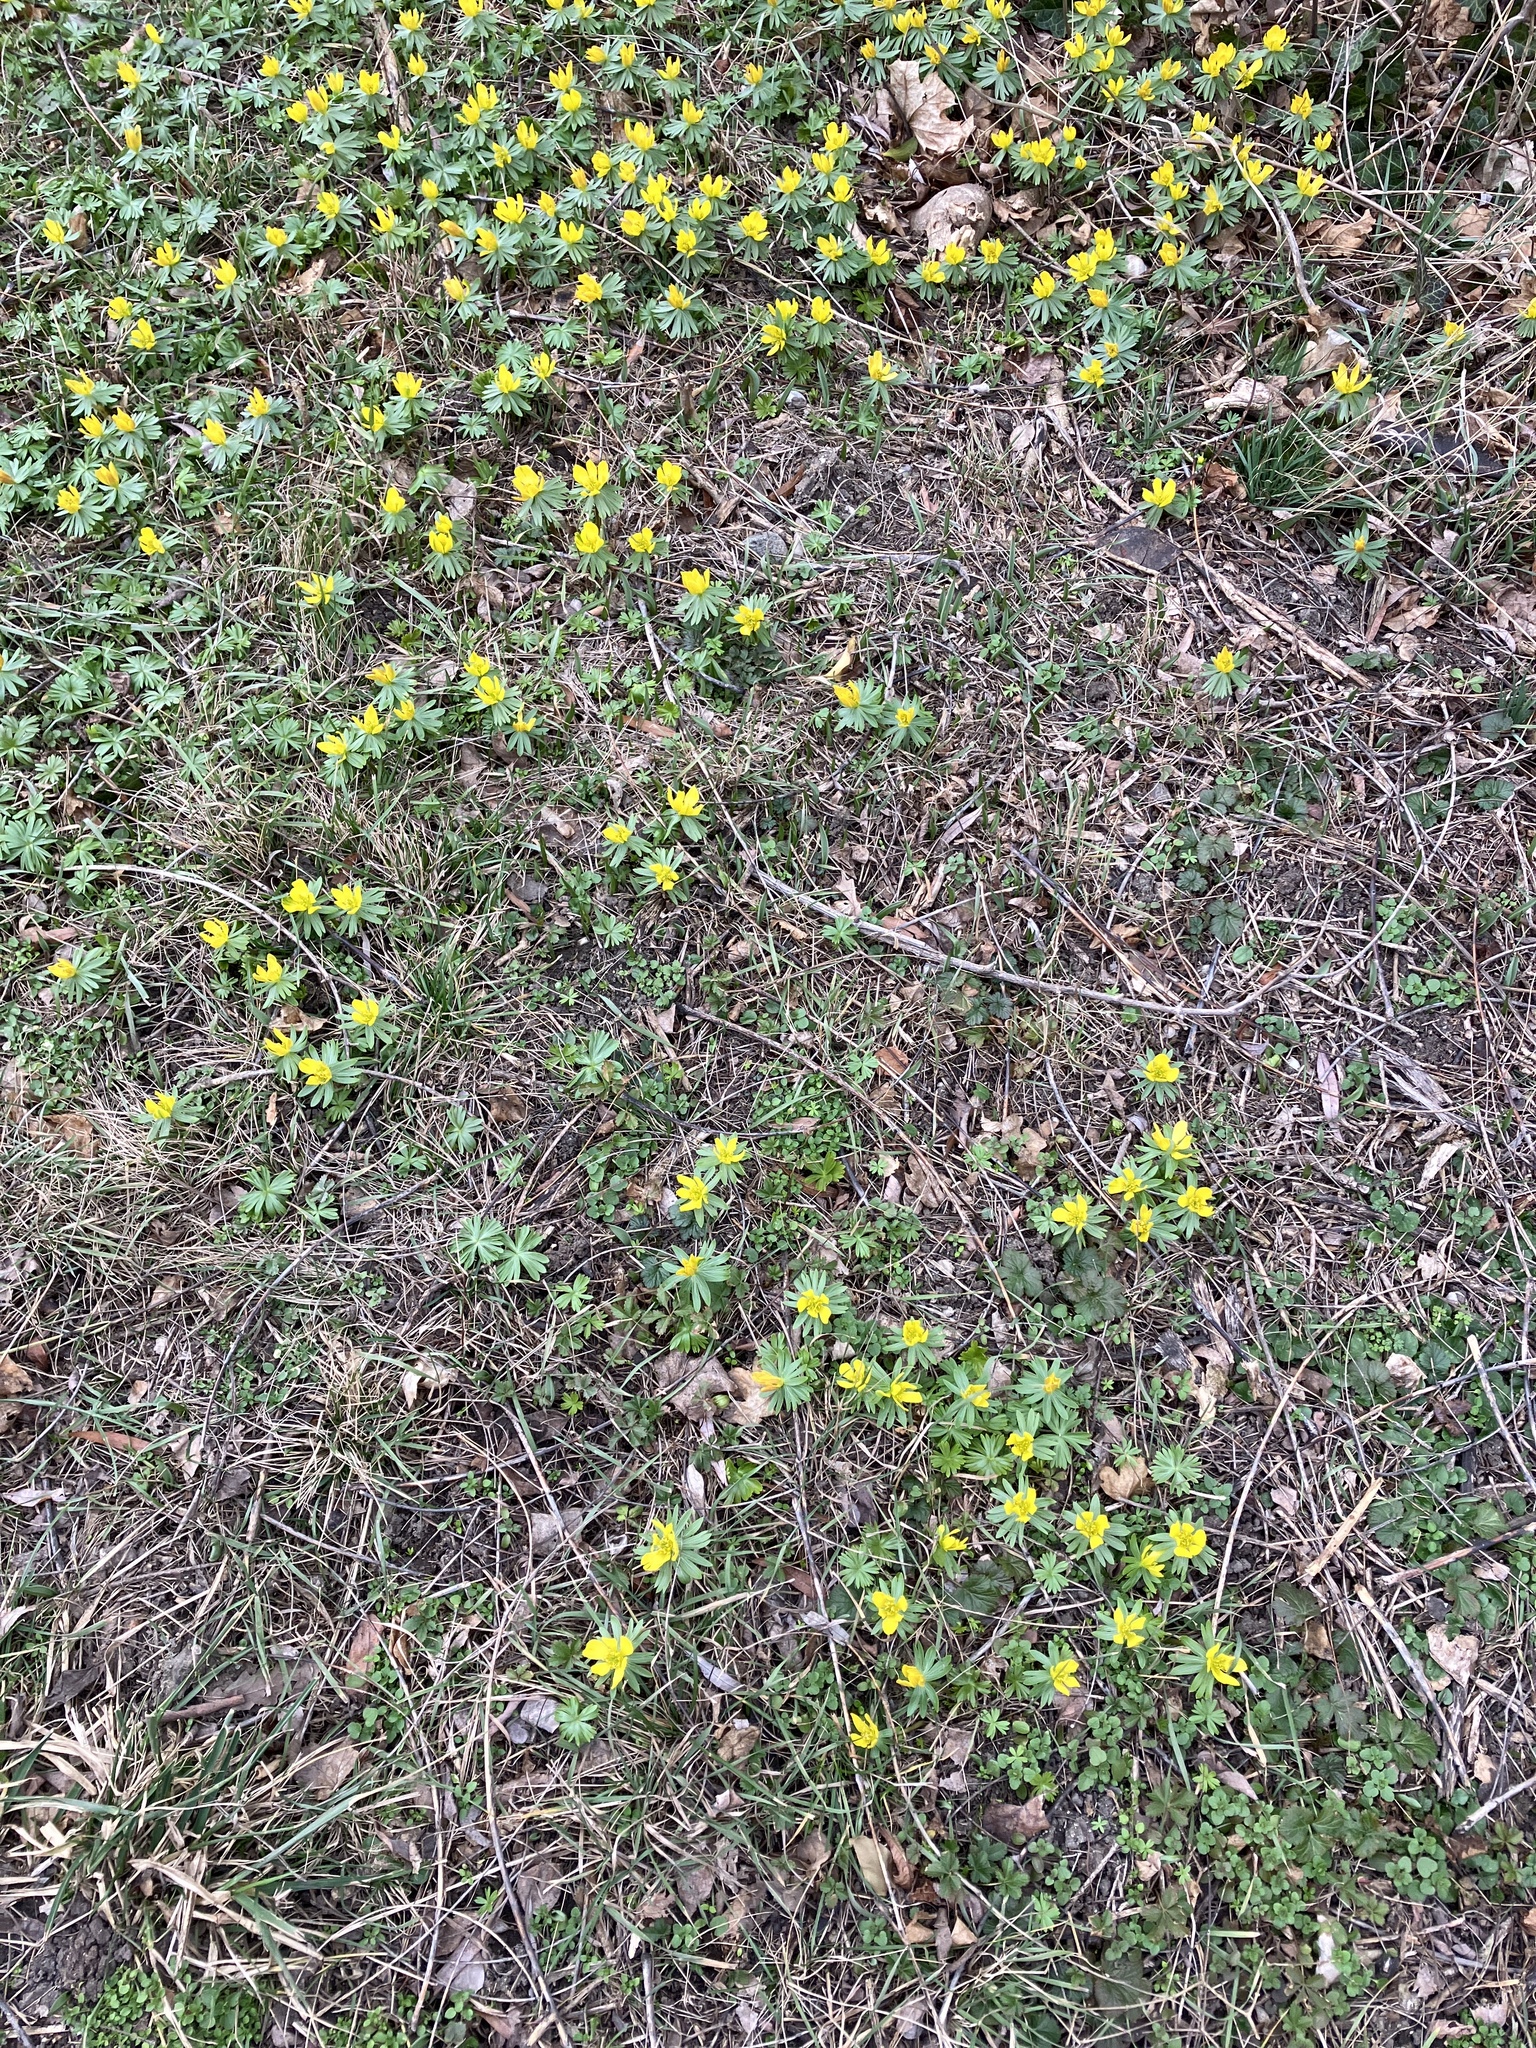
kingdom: Plantae
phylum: Tracheophyta
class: Magnoliopsida
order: Ranunculales
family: Ranunculaceae
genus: Eranthis
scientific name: Eranthis hyemalis
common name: Winter aconite
